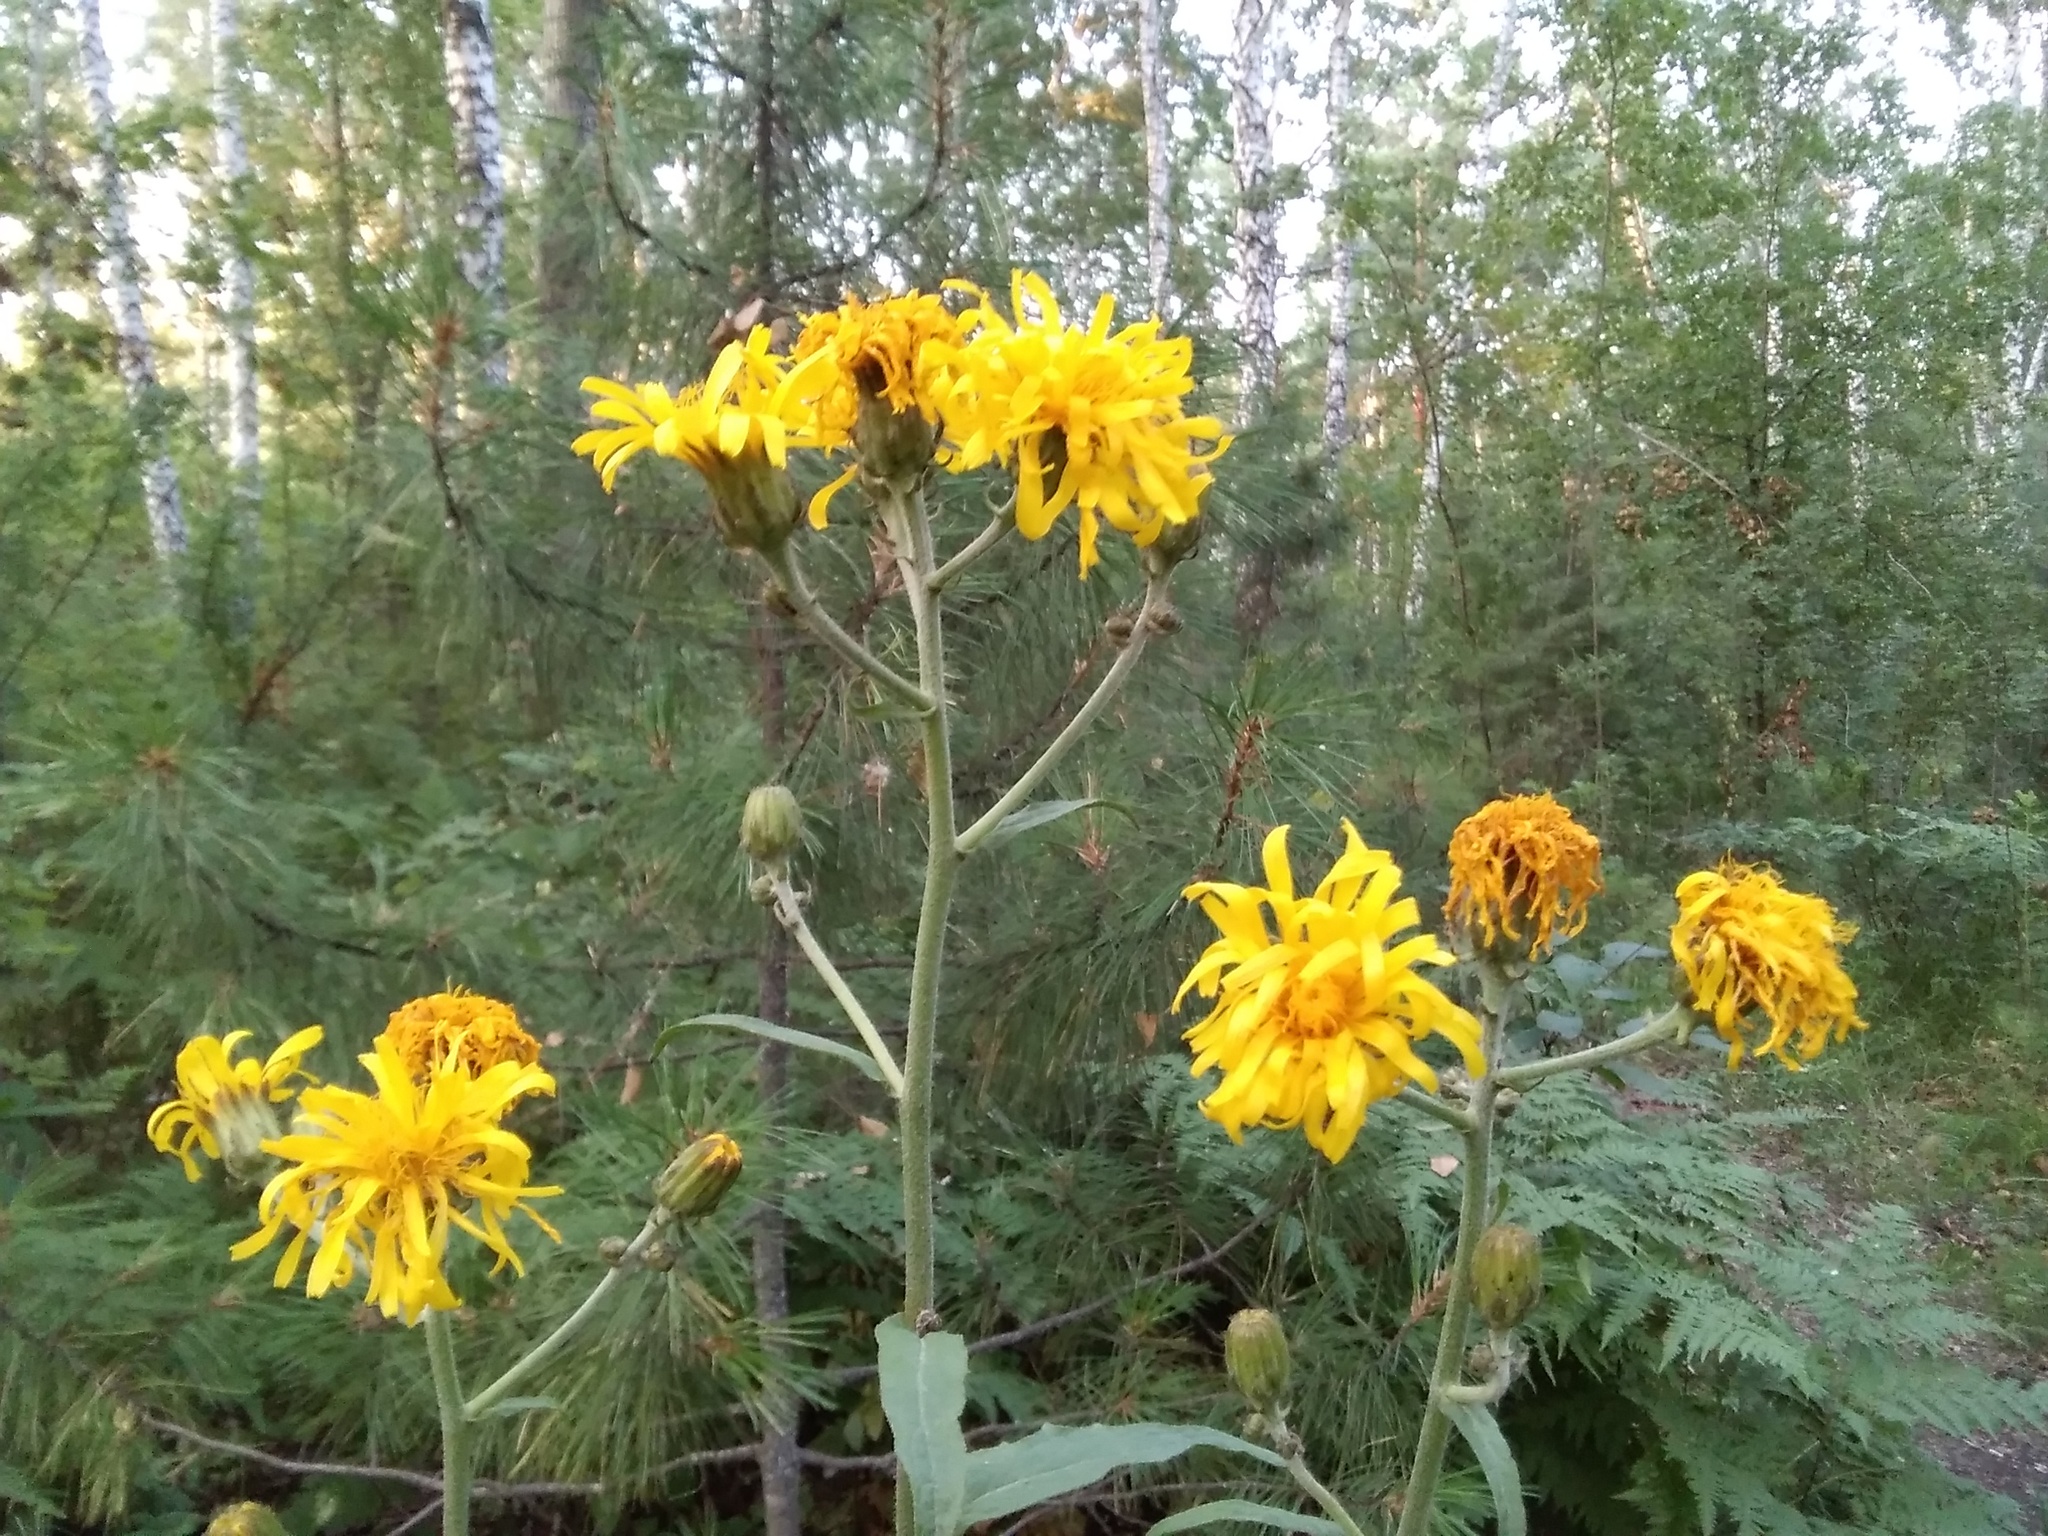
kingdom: Plantae
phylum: Tracheophyta
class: Magnoliopsida
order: Asterales
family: Asteraceae
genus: Crepis
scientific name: Crepis sibirica
